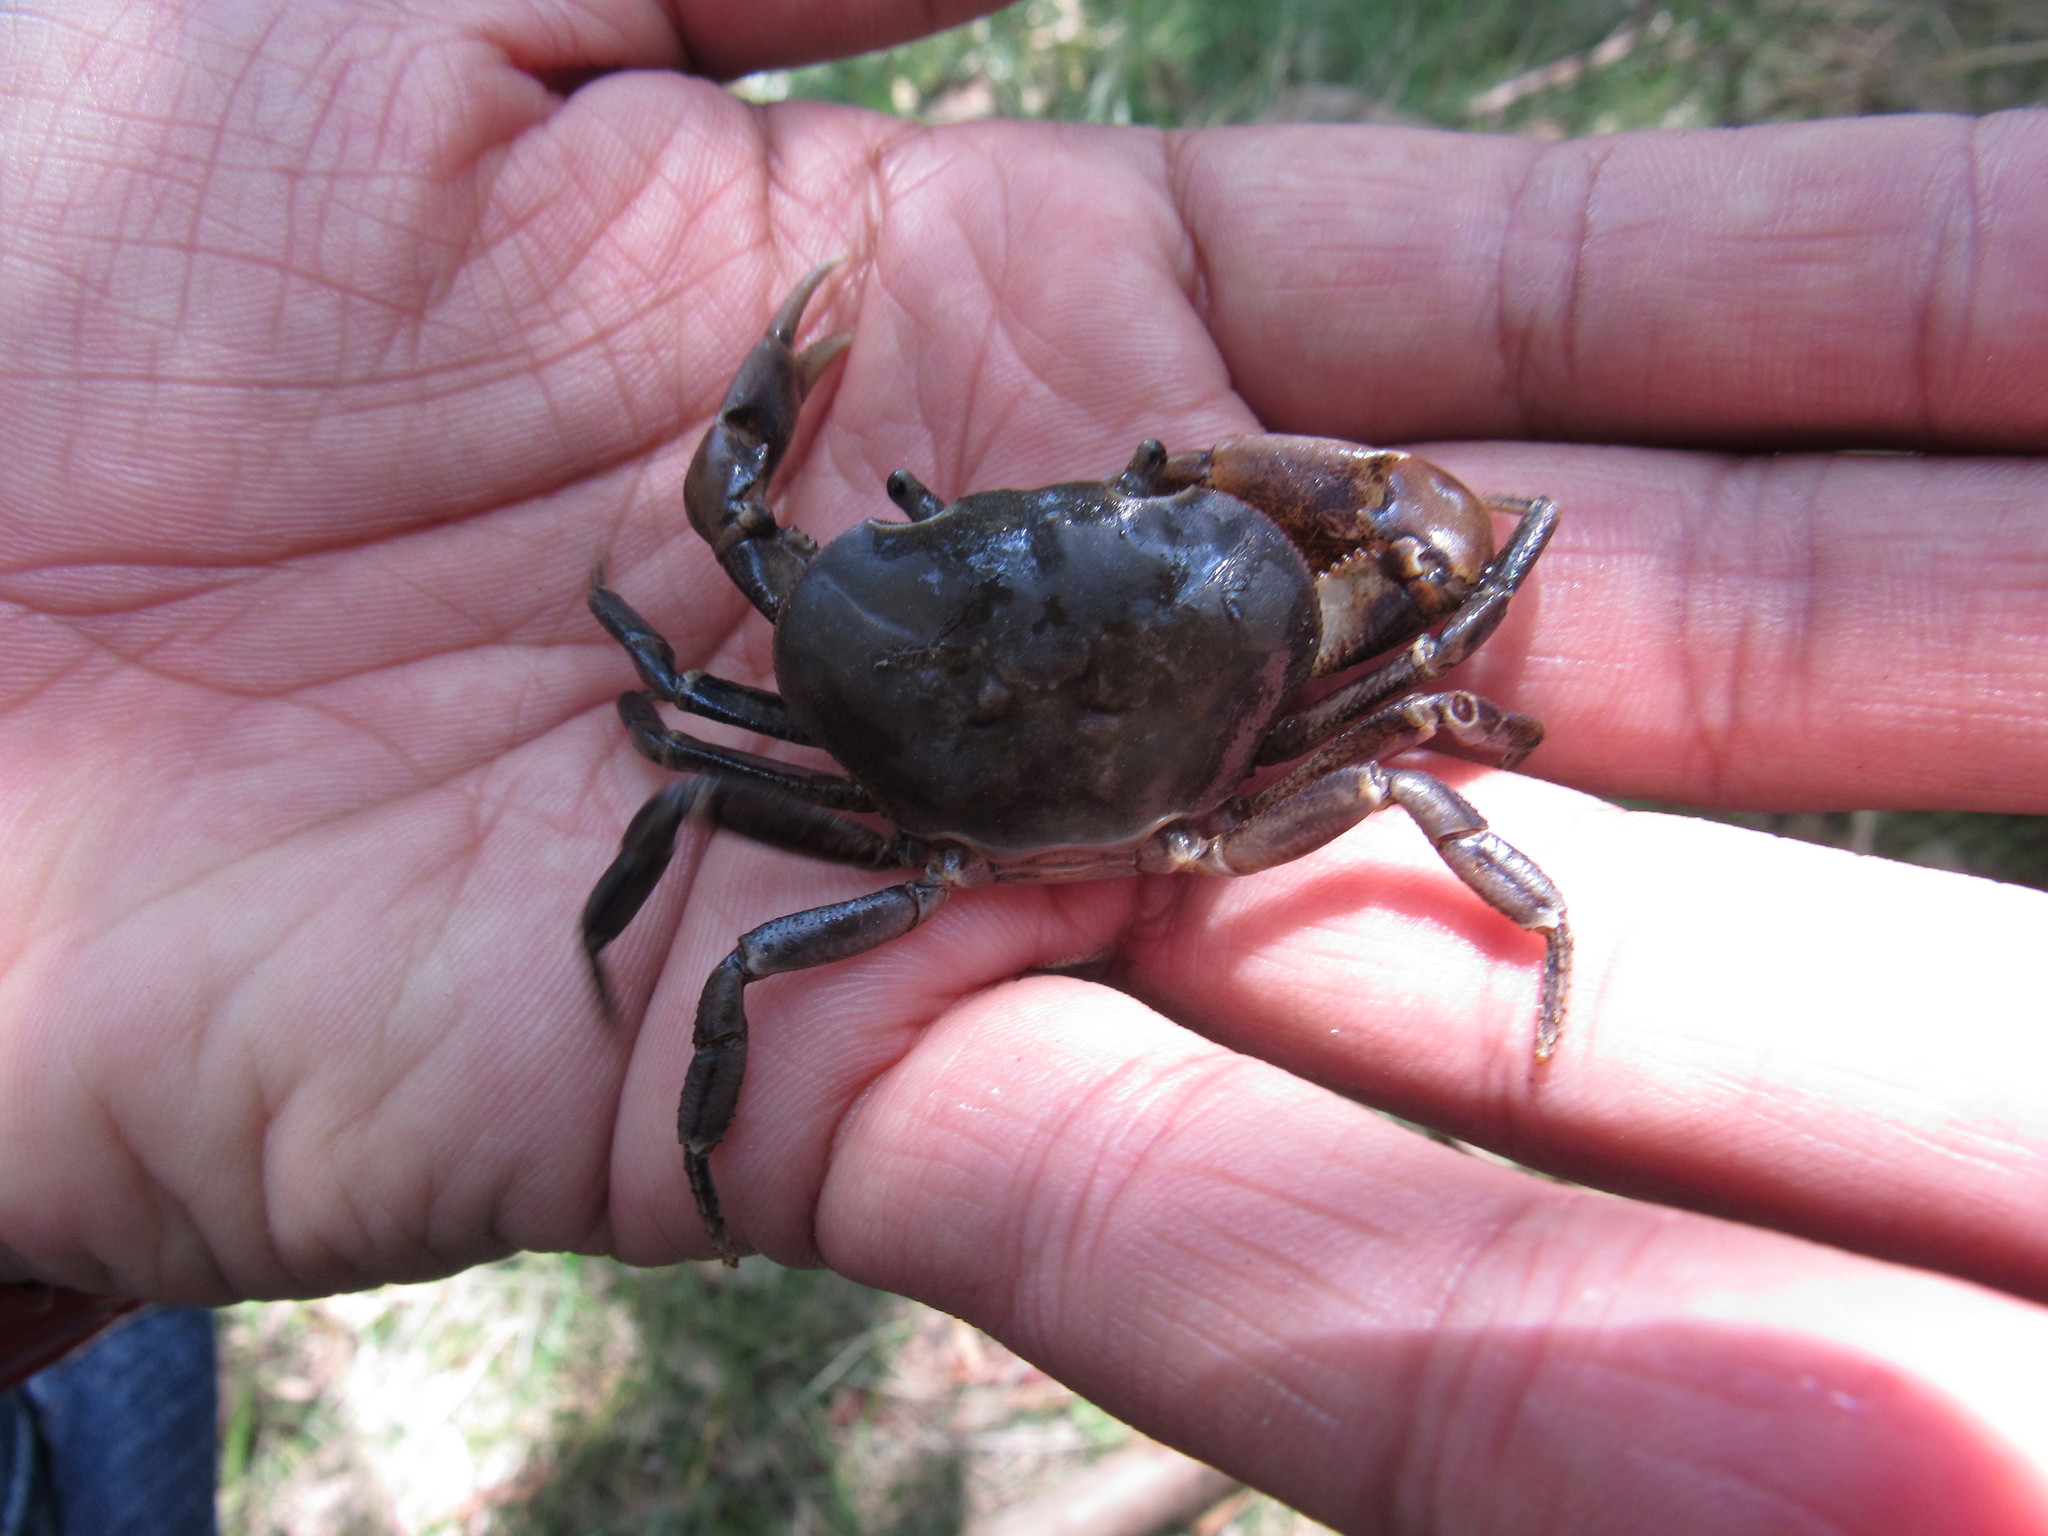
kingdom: Animalia
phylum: Arthropoda
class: Malacostraca
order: Decapoda
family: Pseudothelphusidae
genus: Pseudothelphusa
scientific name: Pseudothelphusa jouyi
